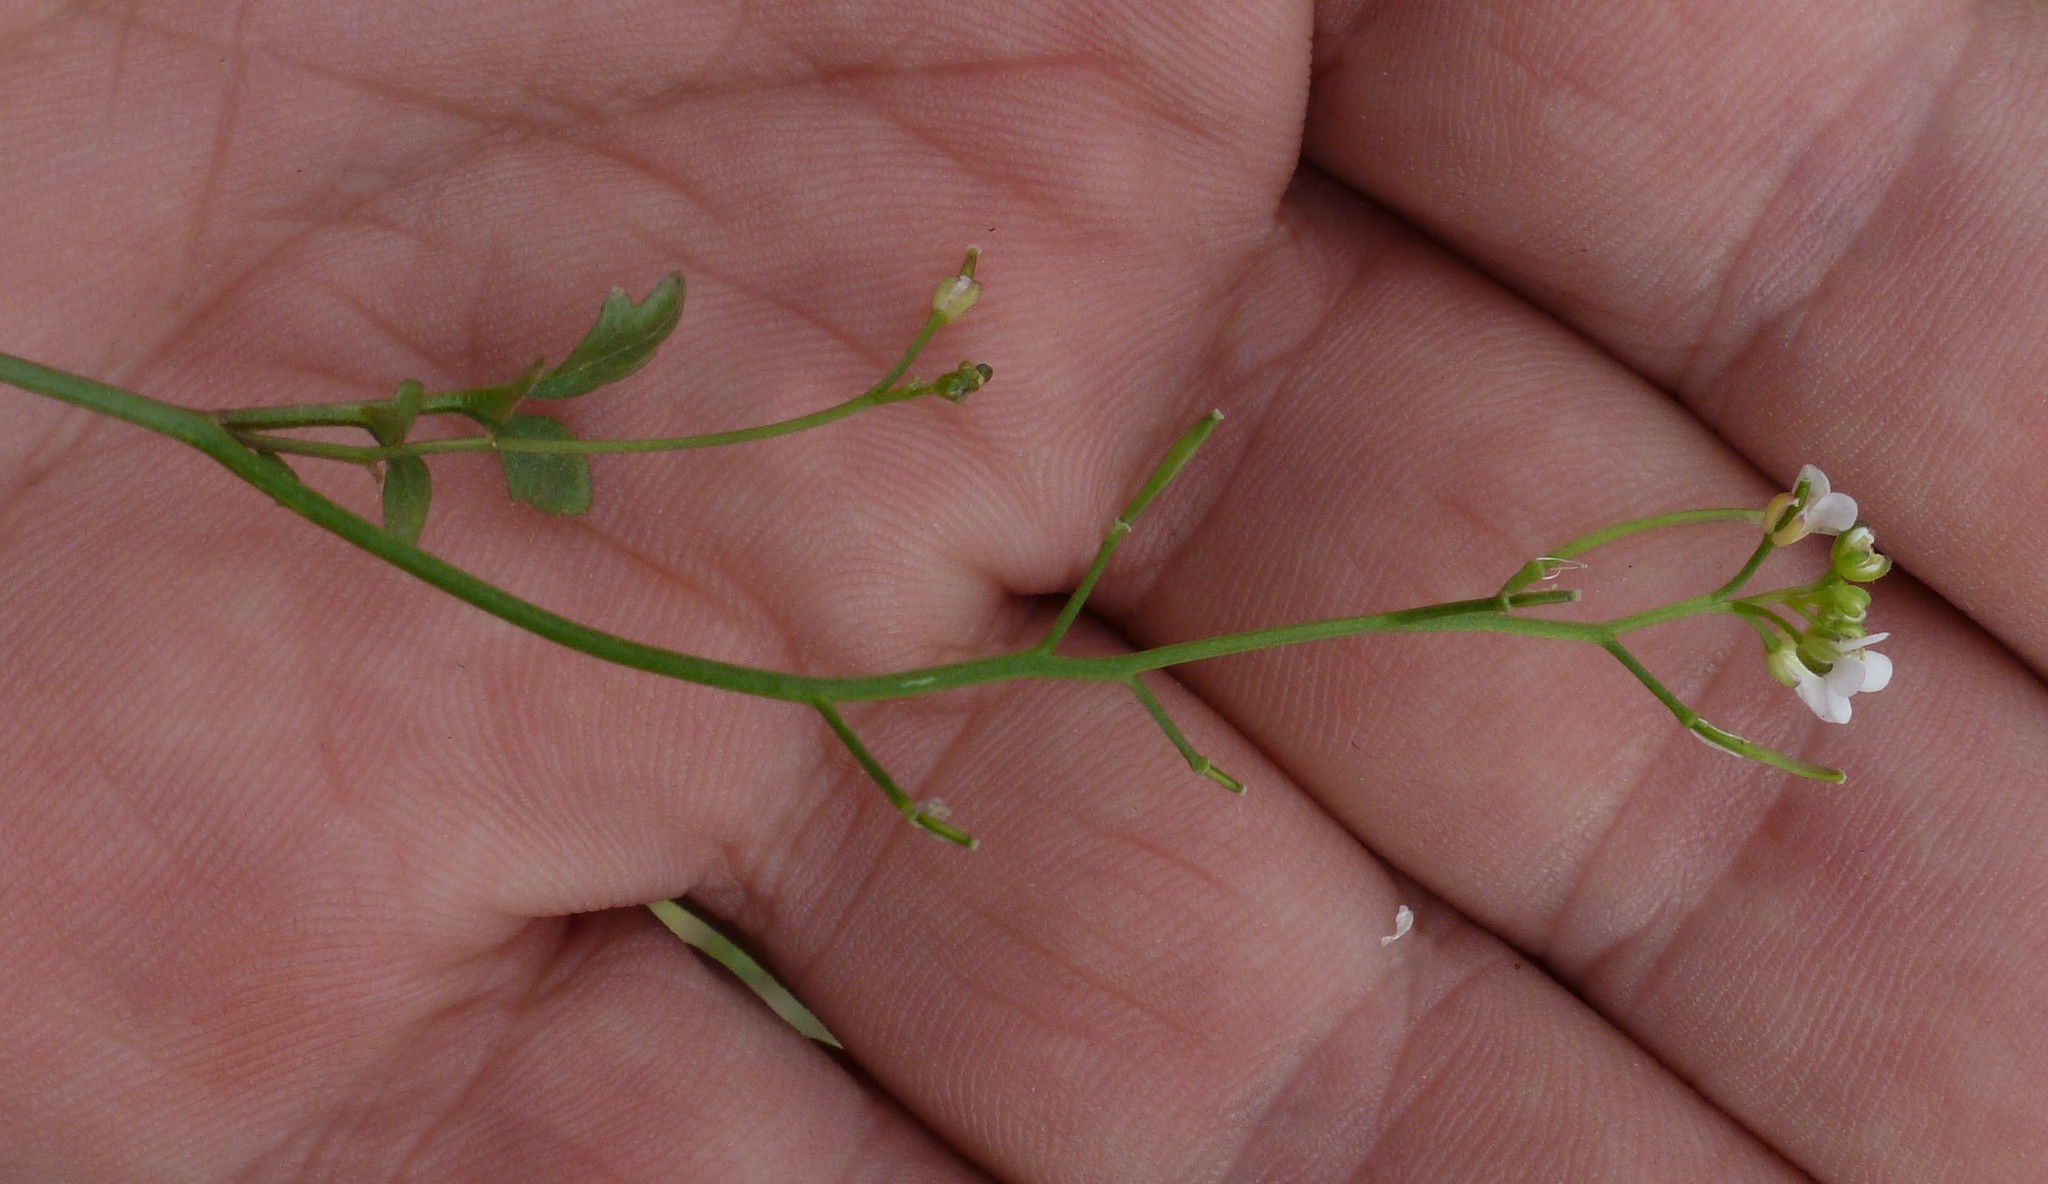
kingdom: Plantae
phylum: Tracheophyta
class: Magnoliopsida
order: Brassicales
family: Brassicaceae
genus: Cardamine
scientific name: Cardamine hirsuta
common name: Hairy bittercress
